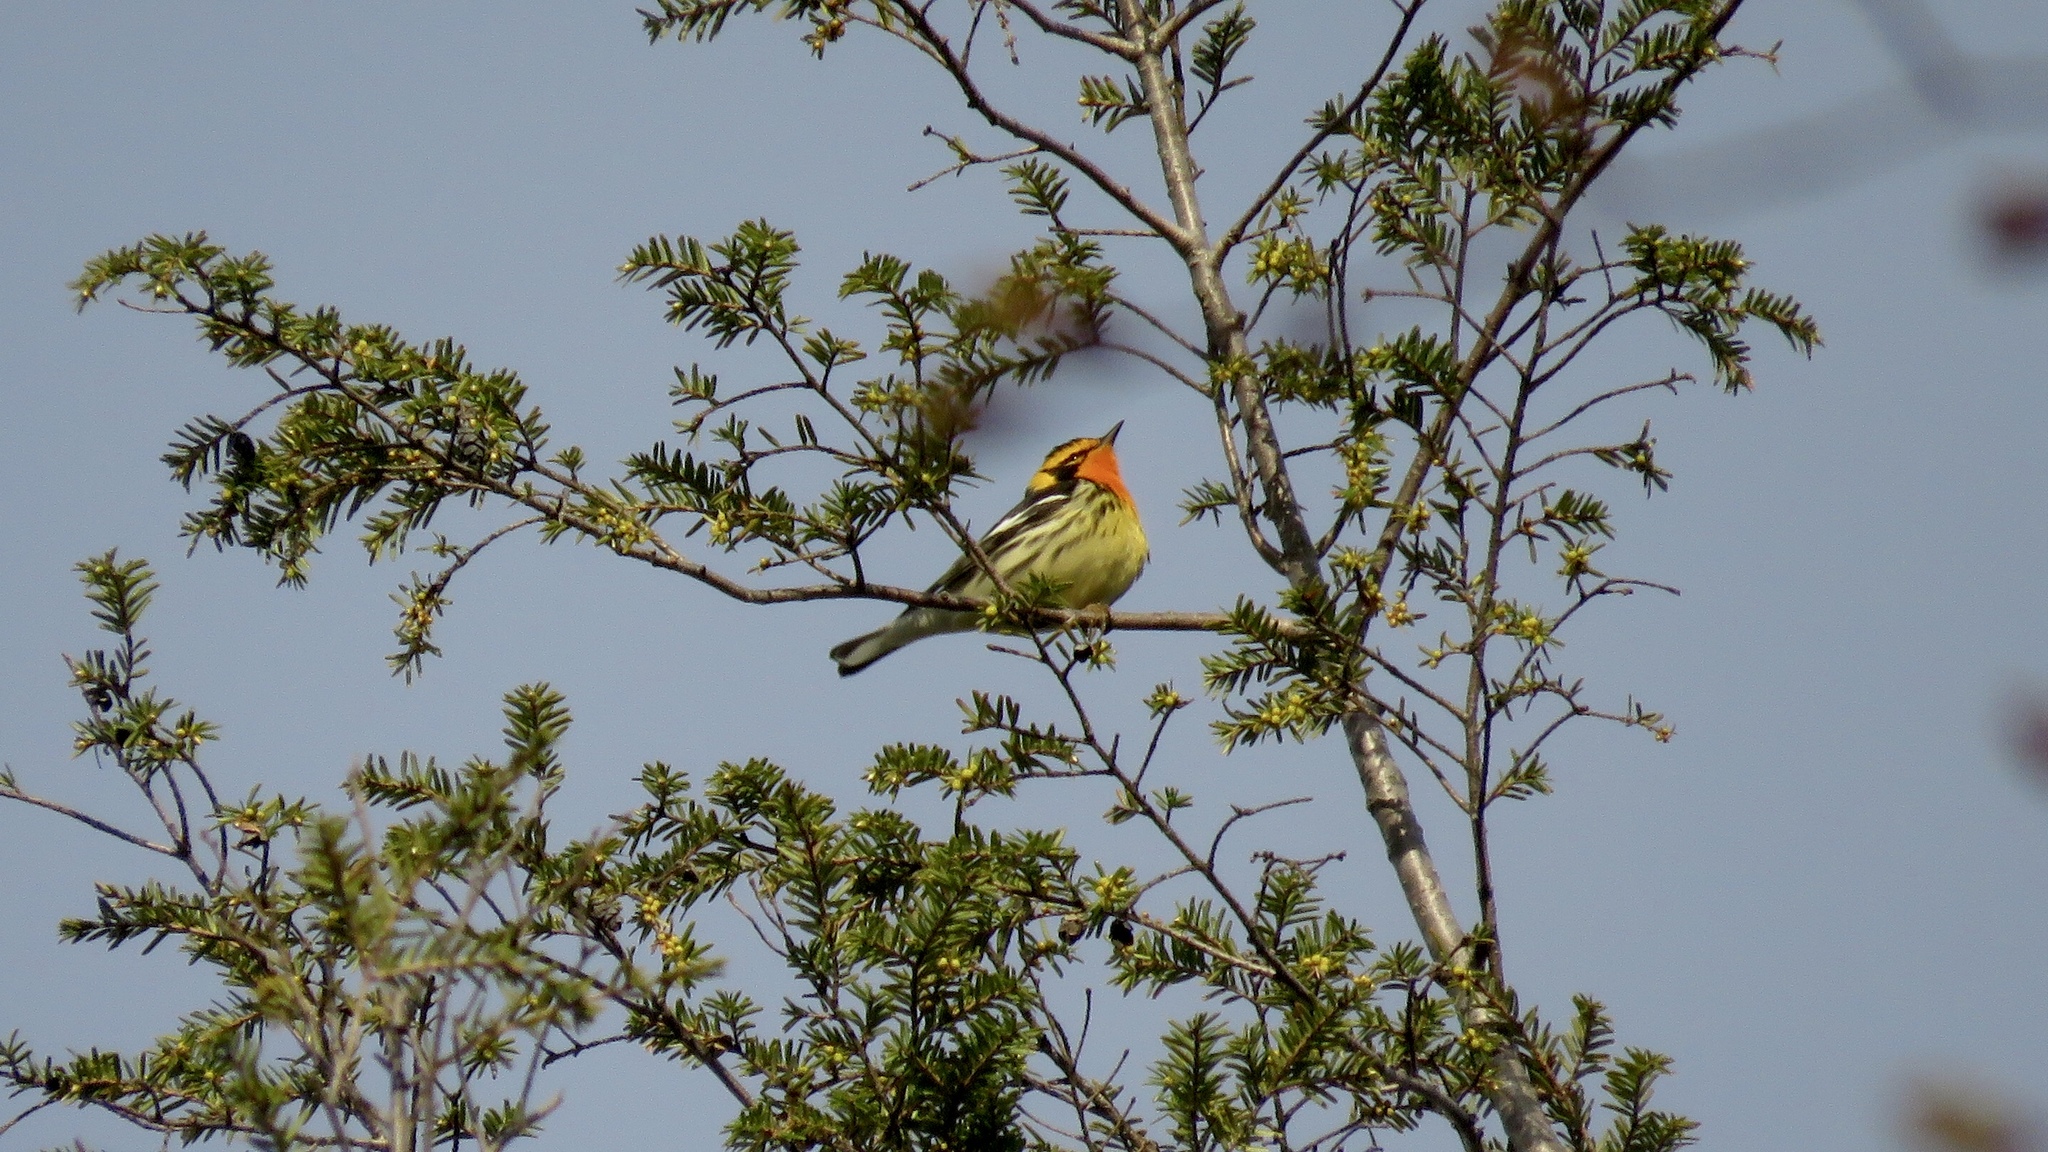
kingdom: Animalia
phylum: Chordata
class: Aves
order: Passeriformes
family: Parulidae
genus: Setophaga
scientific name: Setophaga fusca
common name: Blackburnian warbler
